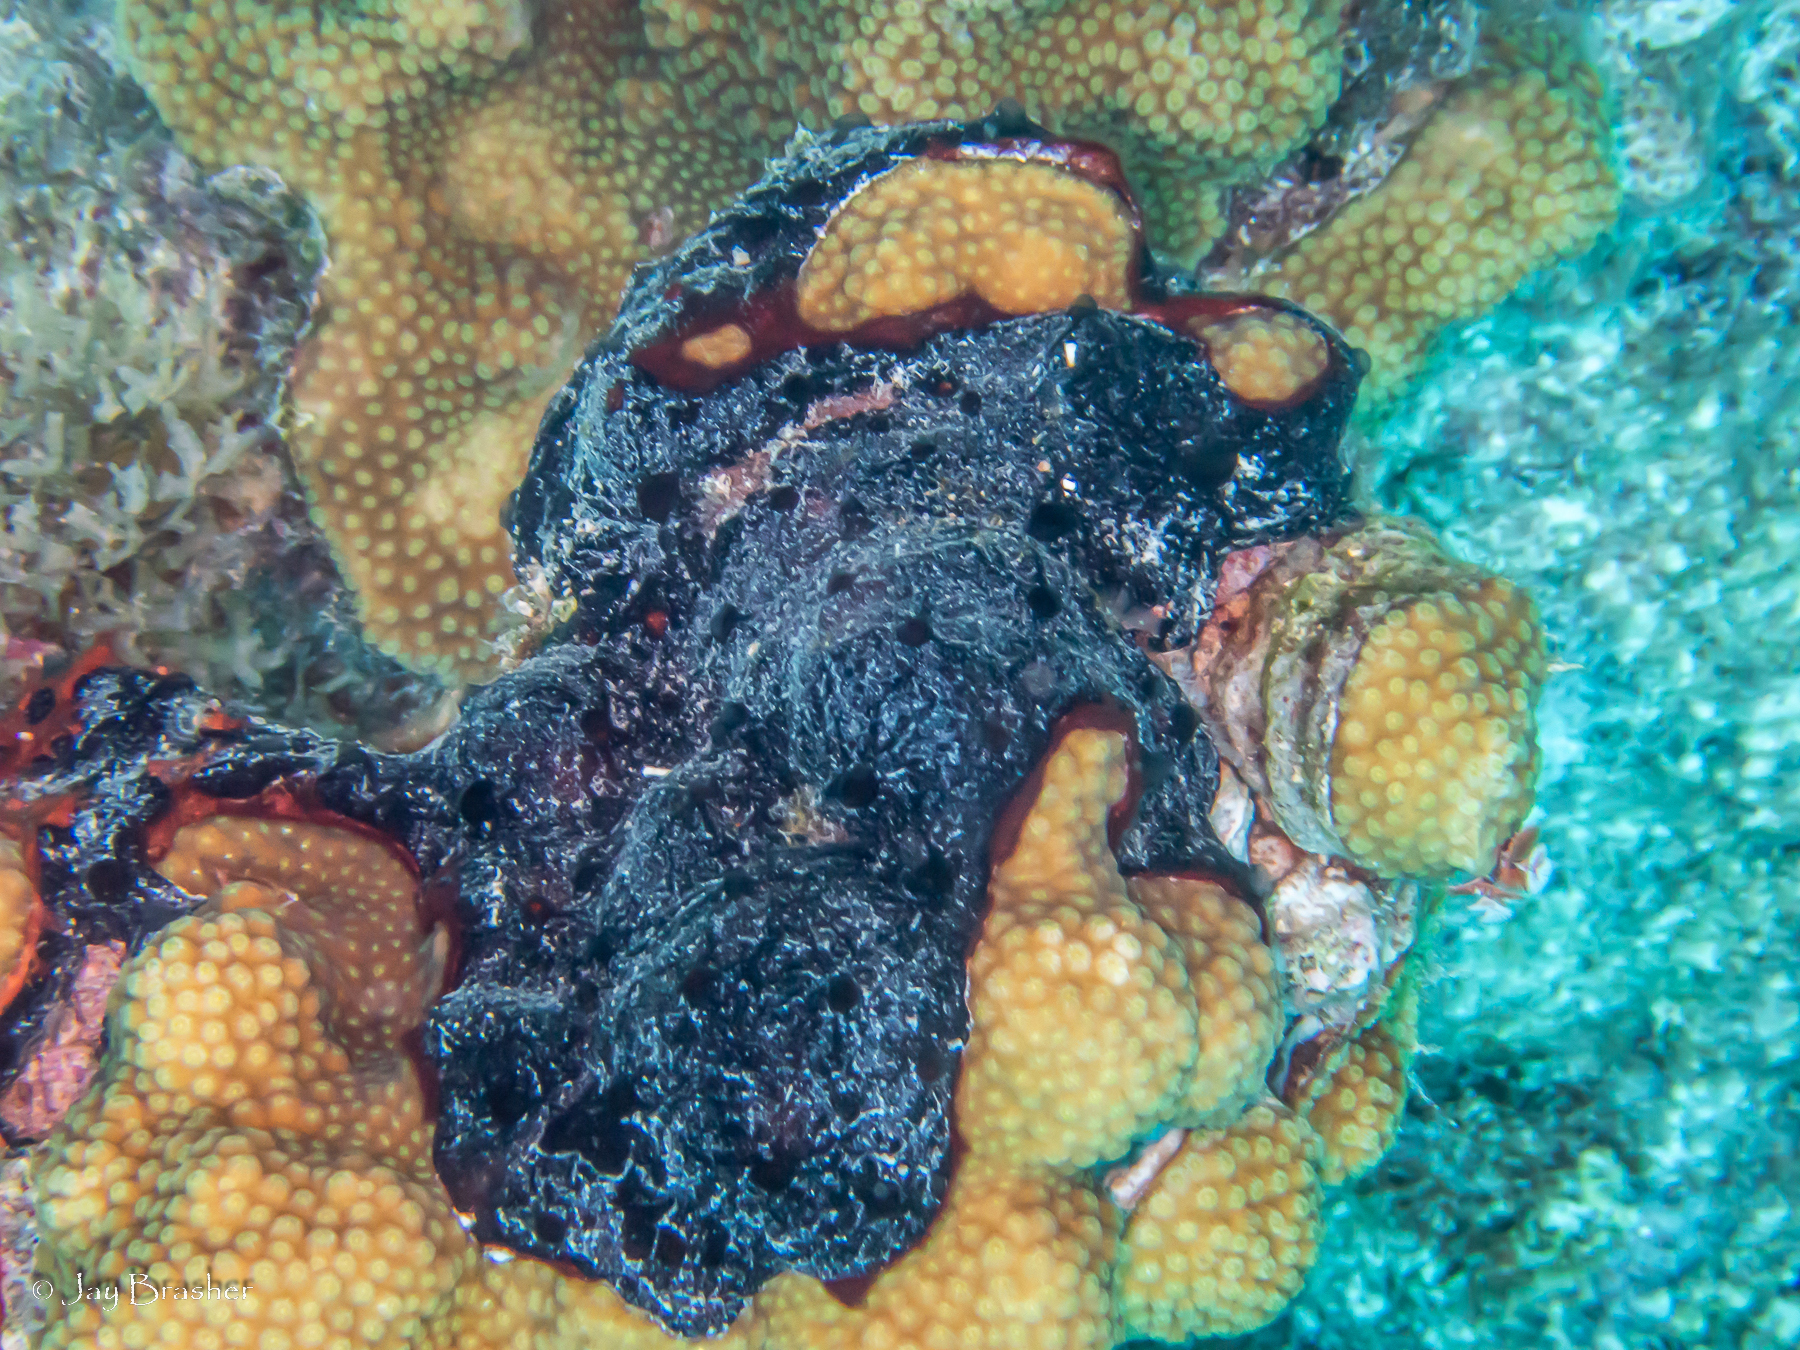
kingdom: Animalia
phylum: Porifera
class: Demospongiae
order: Poecilosclerida
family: Microcionidae
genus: Artemisina
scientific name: Artemisina melana
